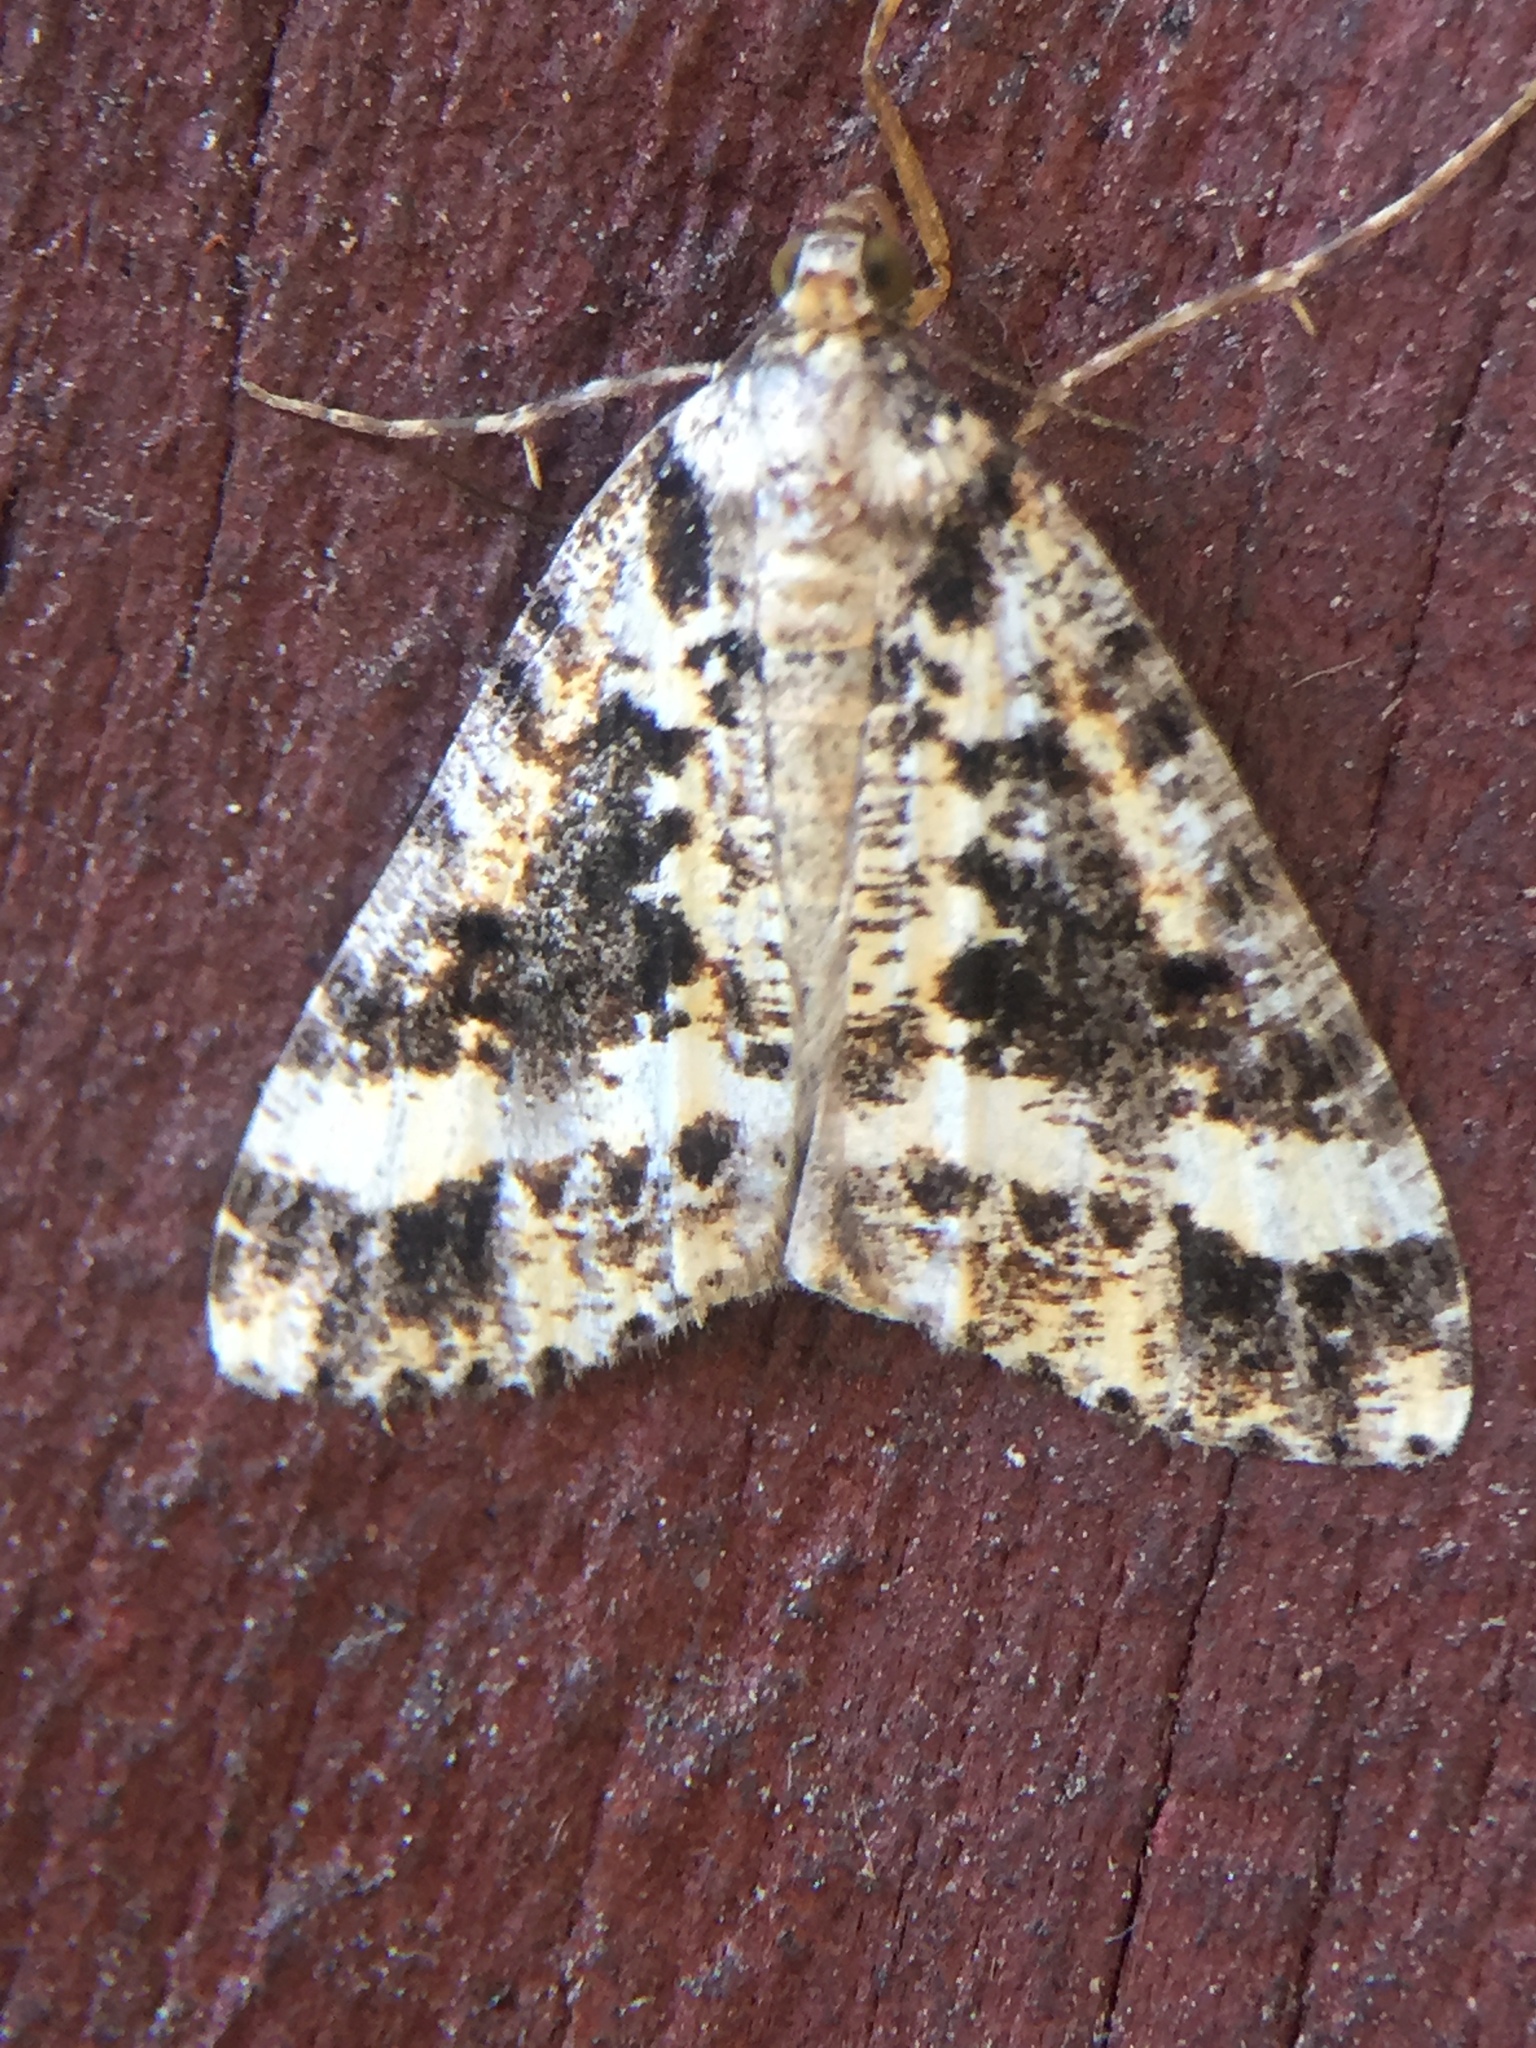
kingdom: Animalia
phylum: Arthropoda
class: Insecta
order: Lepidoptera
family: Geometridae
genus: Pseudocoremia
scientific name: Pseudocoremia leucelaea
